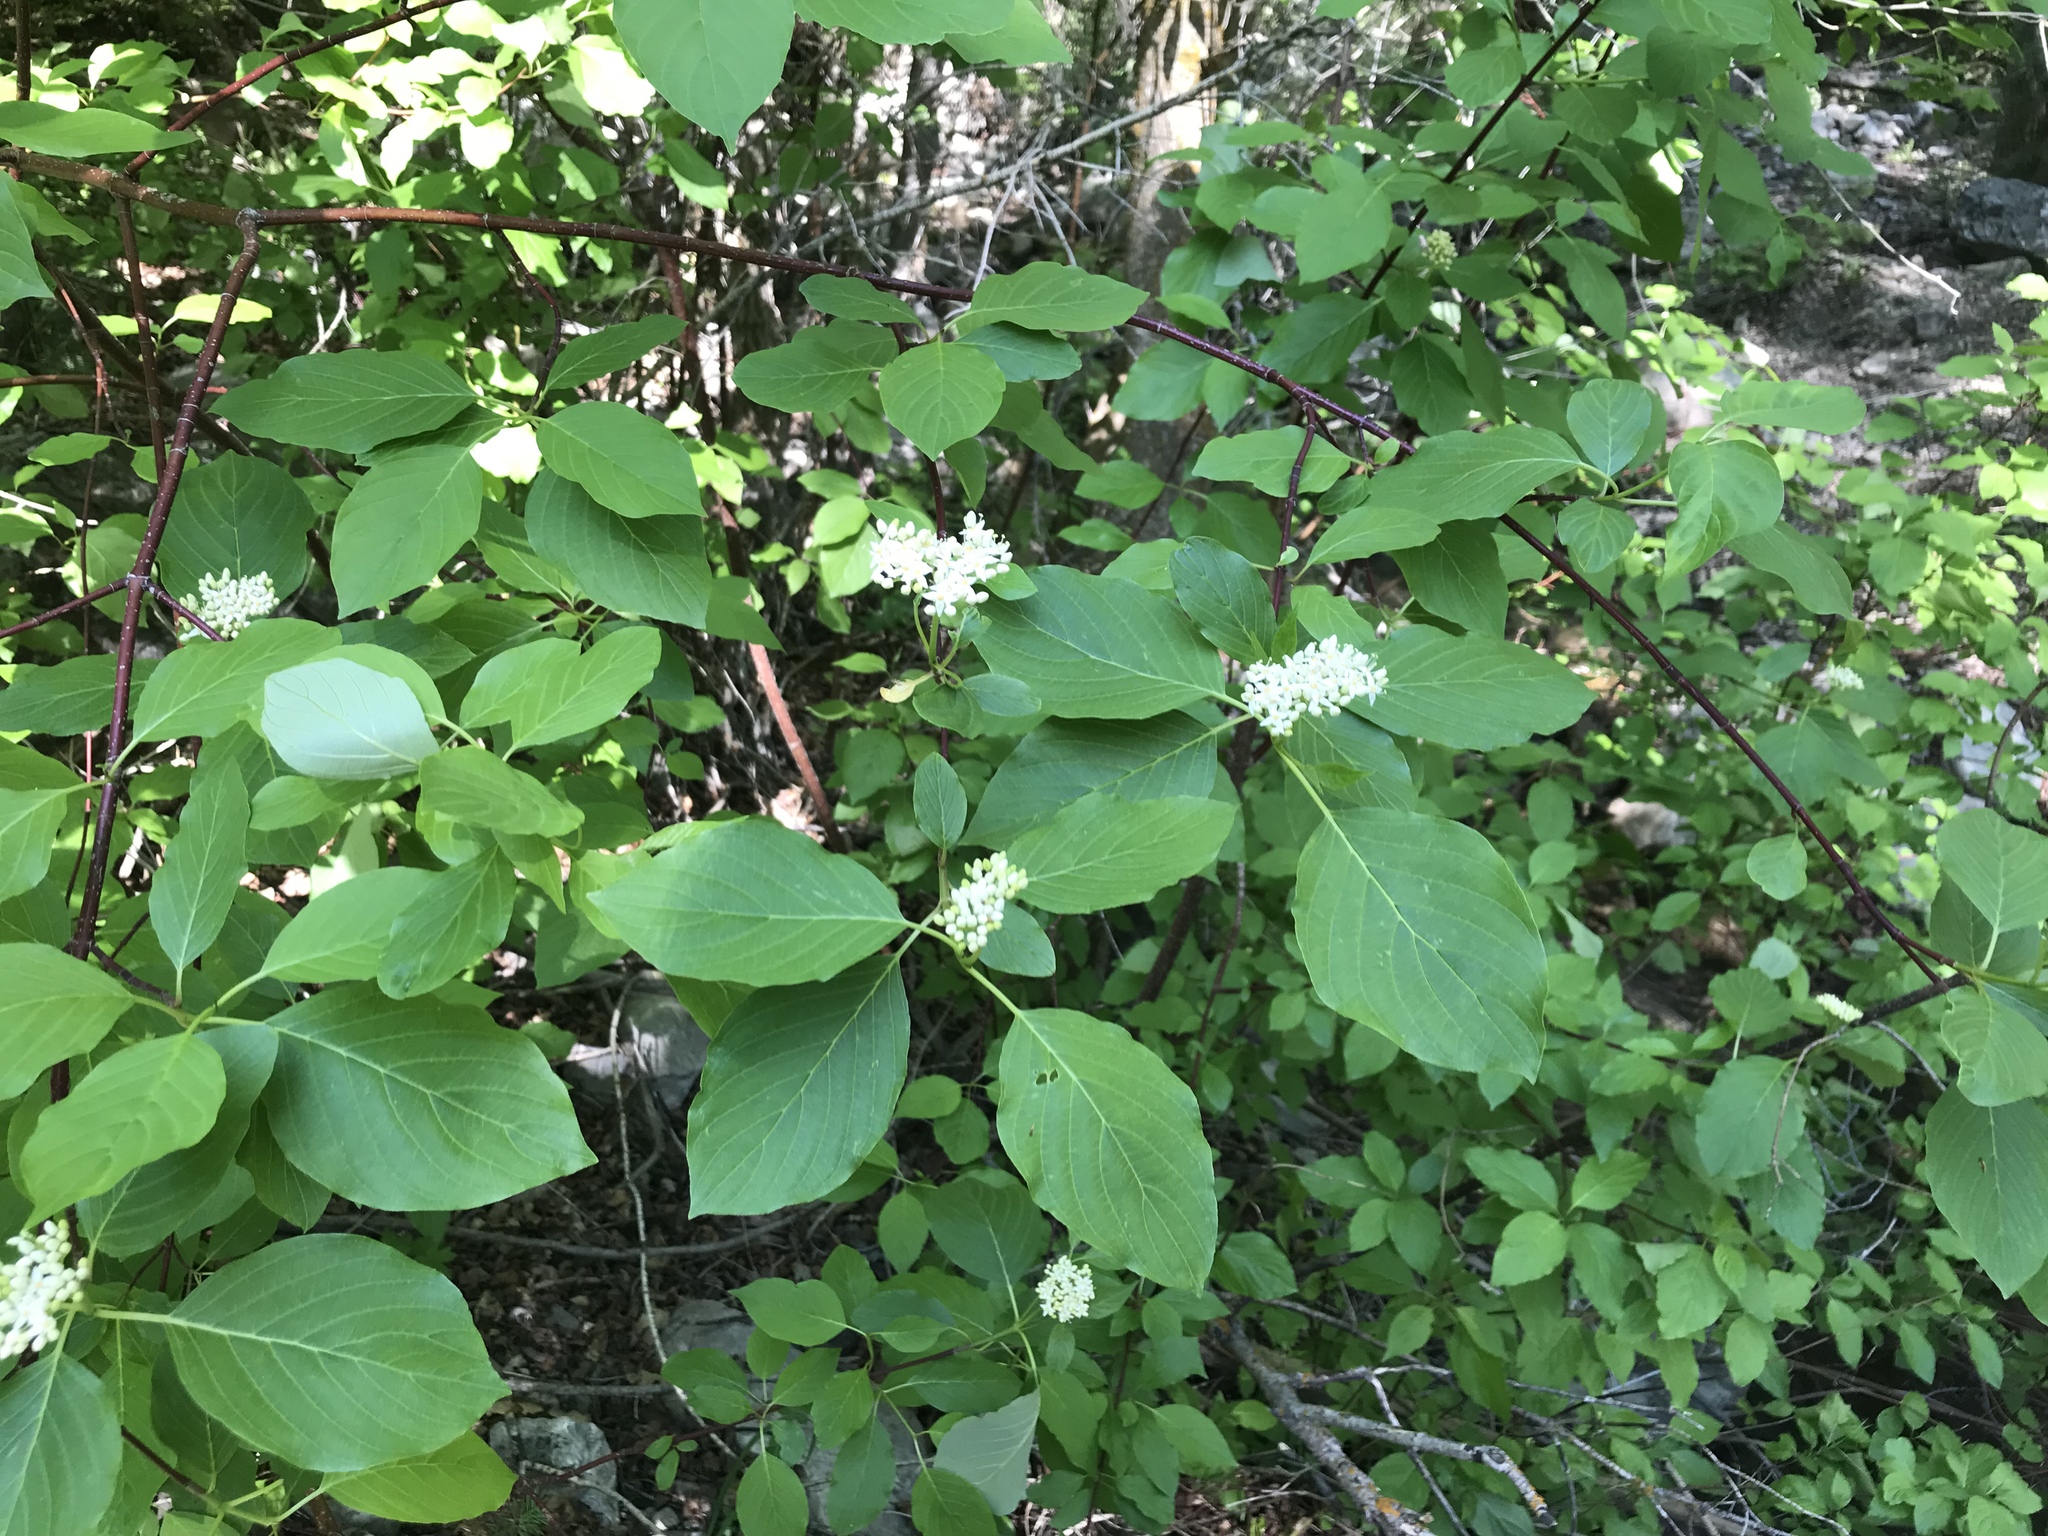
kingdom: Plantae
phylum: Tracheophyta
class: Magnoliopsida
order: Cornales
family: Cornaceae
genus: Cornus
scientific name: Cornus sericea
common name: Red-osier dogwood
